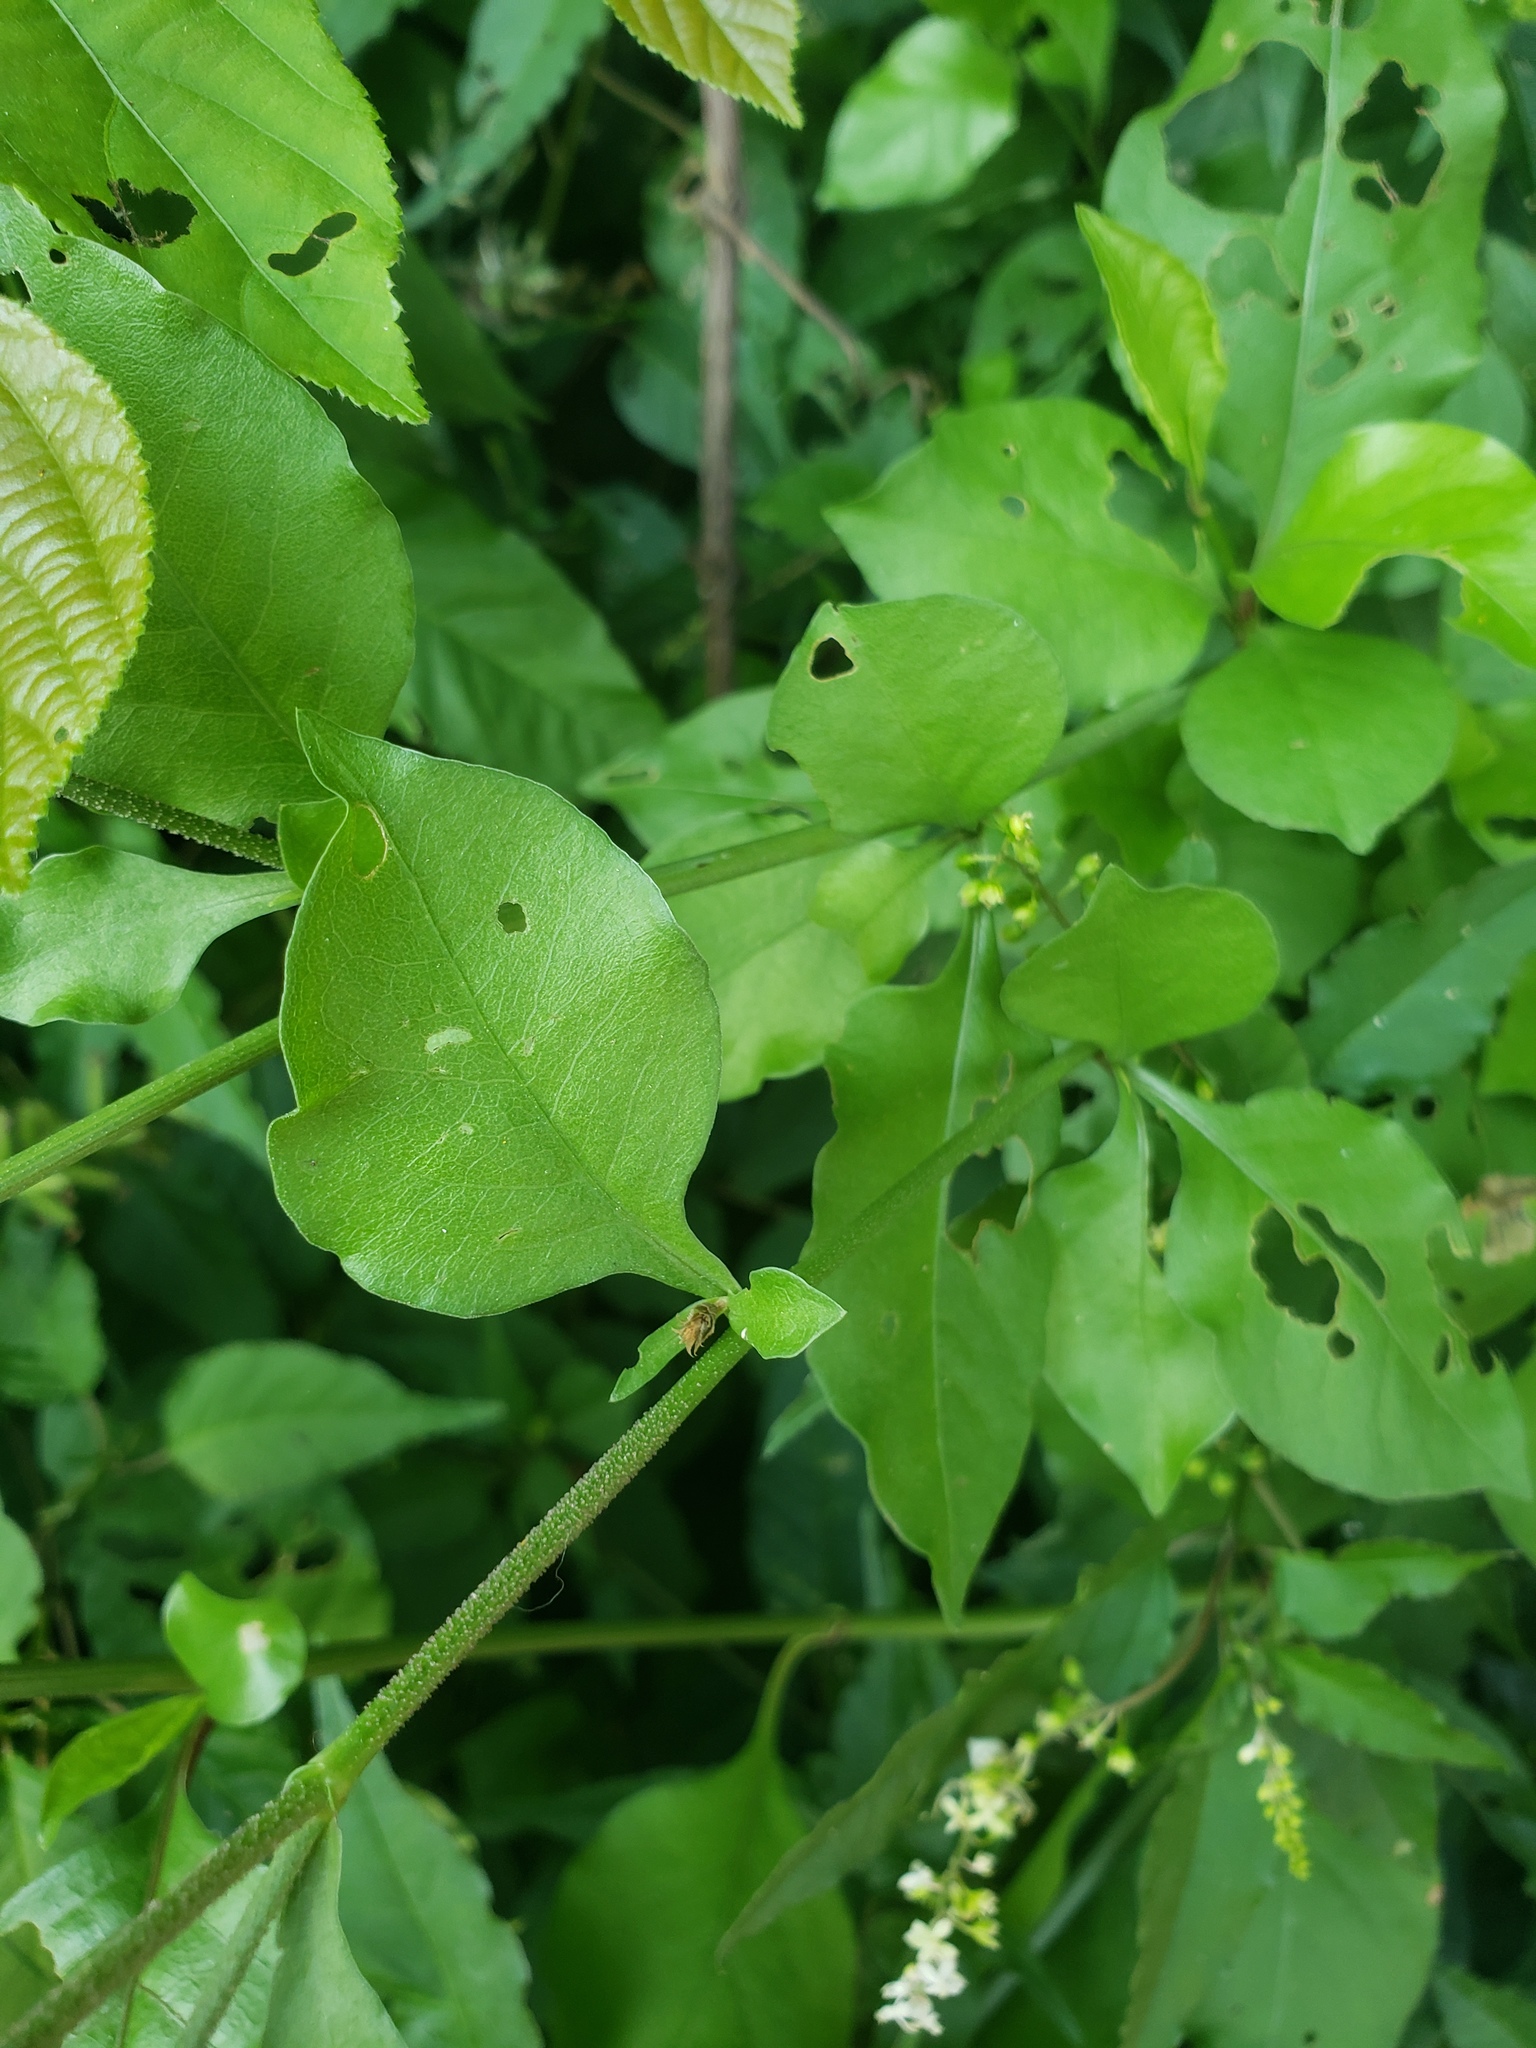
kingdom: Plantae
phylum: Tracheophyta
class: Magnoliopsida
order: Caryophyllales
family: Plumbaginaceae
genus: Plumbago
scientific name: Plumbago zeylanica
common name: Doctorbush
